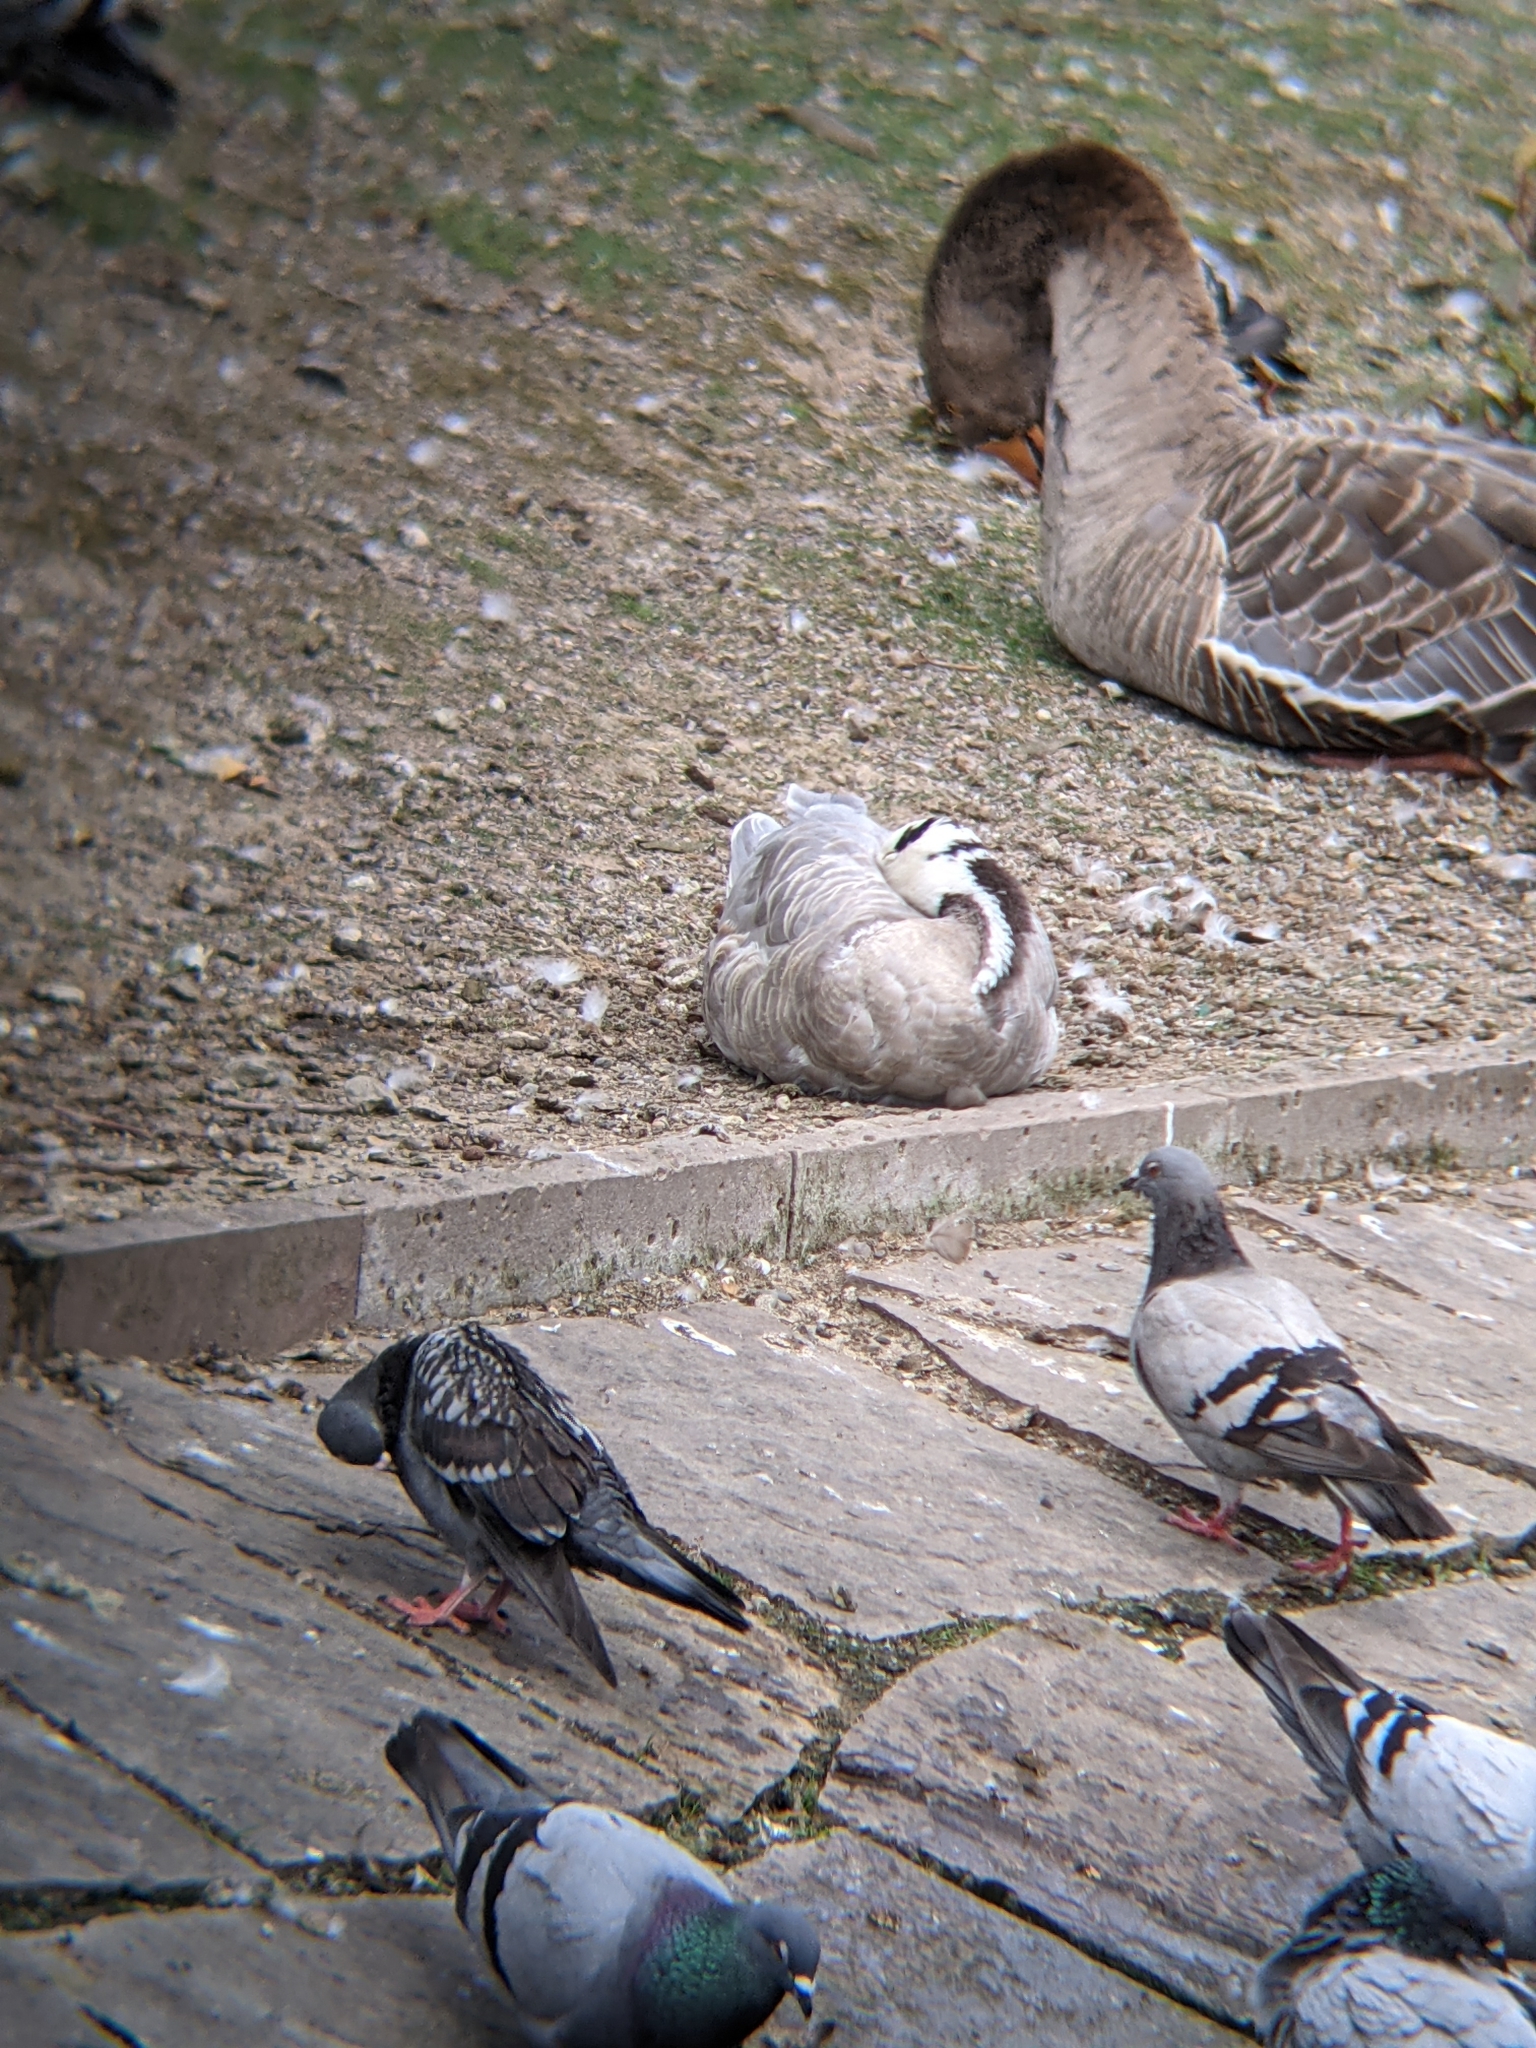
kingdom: Animalia
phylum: Chordata
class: Aves
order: Anseriformes
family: Anatidae
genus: Anser
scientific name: Anser indicus
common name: Bar-headed goose
